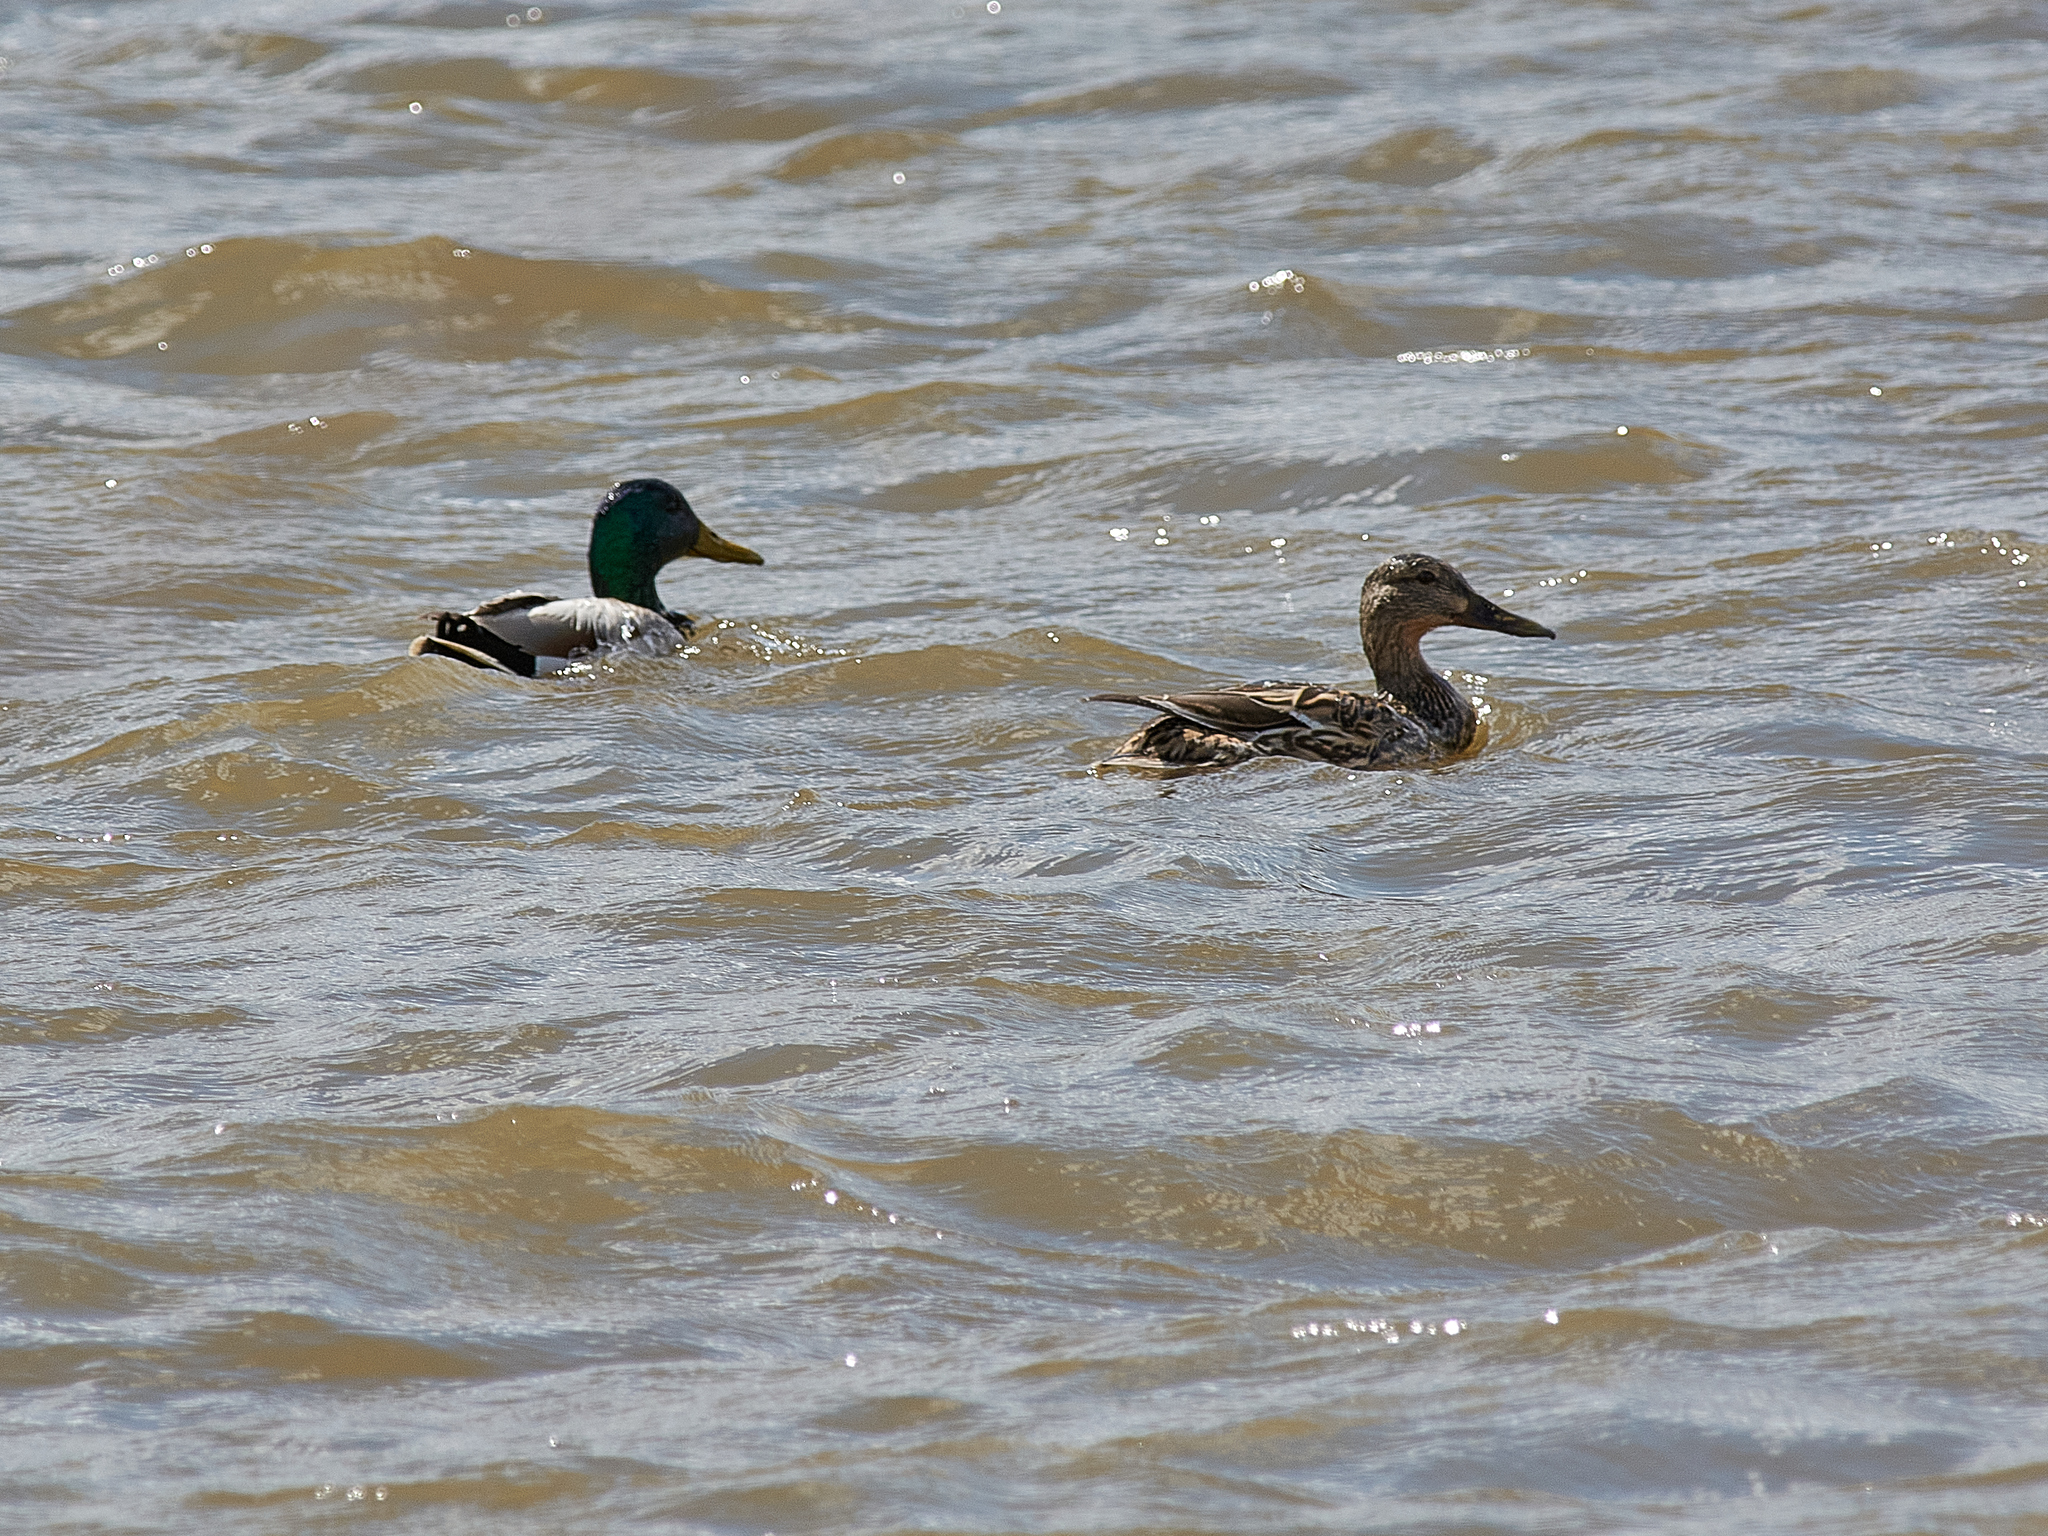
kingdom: Animalia
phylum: Chordata
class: Aves
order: Anseriformes
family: Anatidae
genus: Anas
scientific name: Anas platyrhynchos
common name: Mallard
